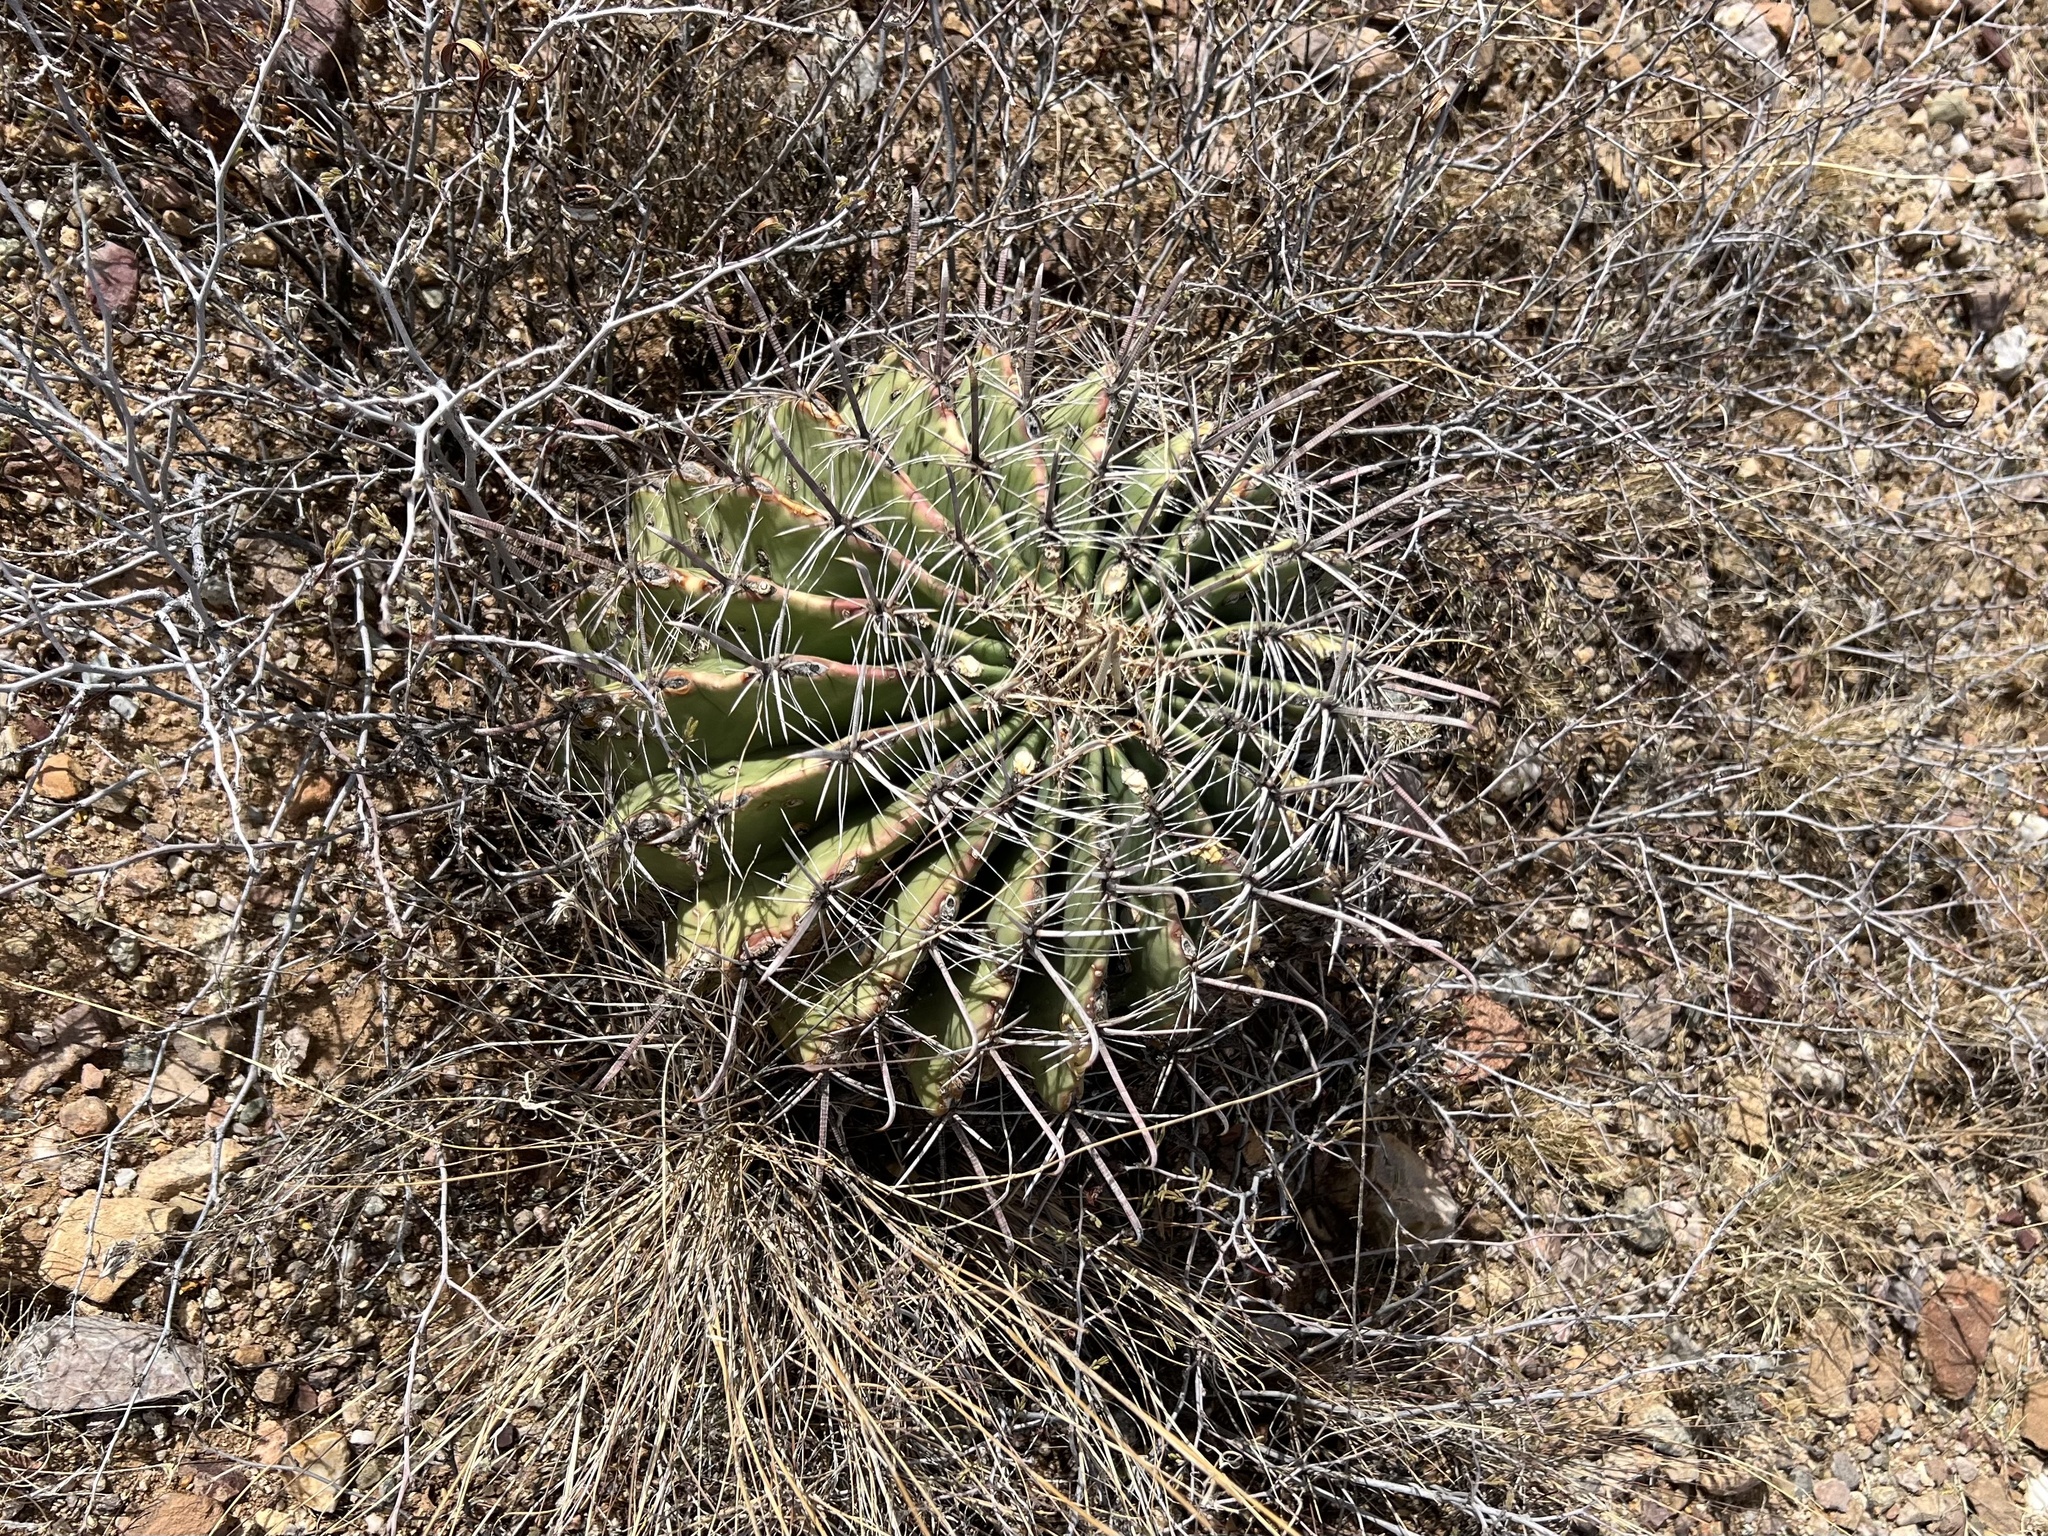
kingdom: Plantae
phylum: Tracheophyta
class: Magnoliopsida
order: Caryophyllales
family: Cactaceae
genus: Ferocactus
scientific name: Ferocactus wislizeni
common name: Candy barrel cactus
